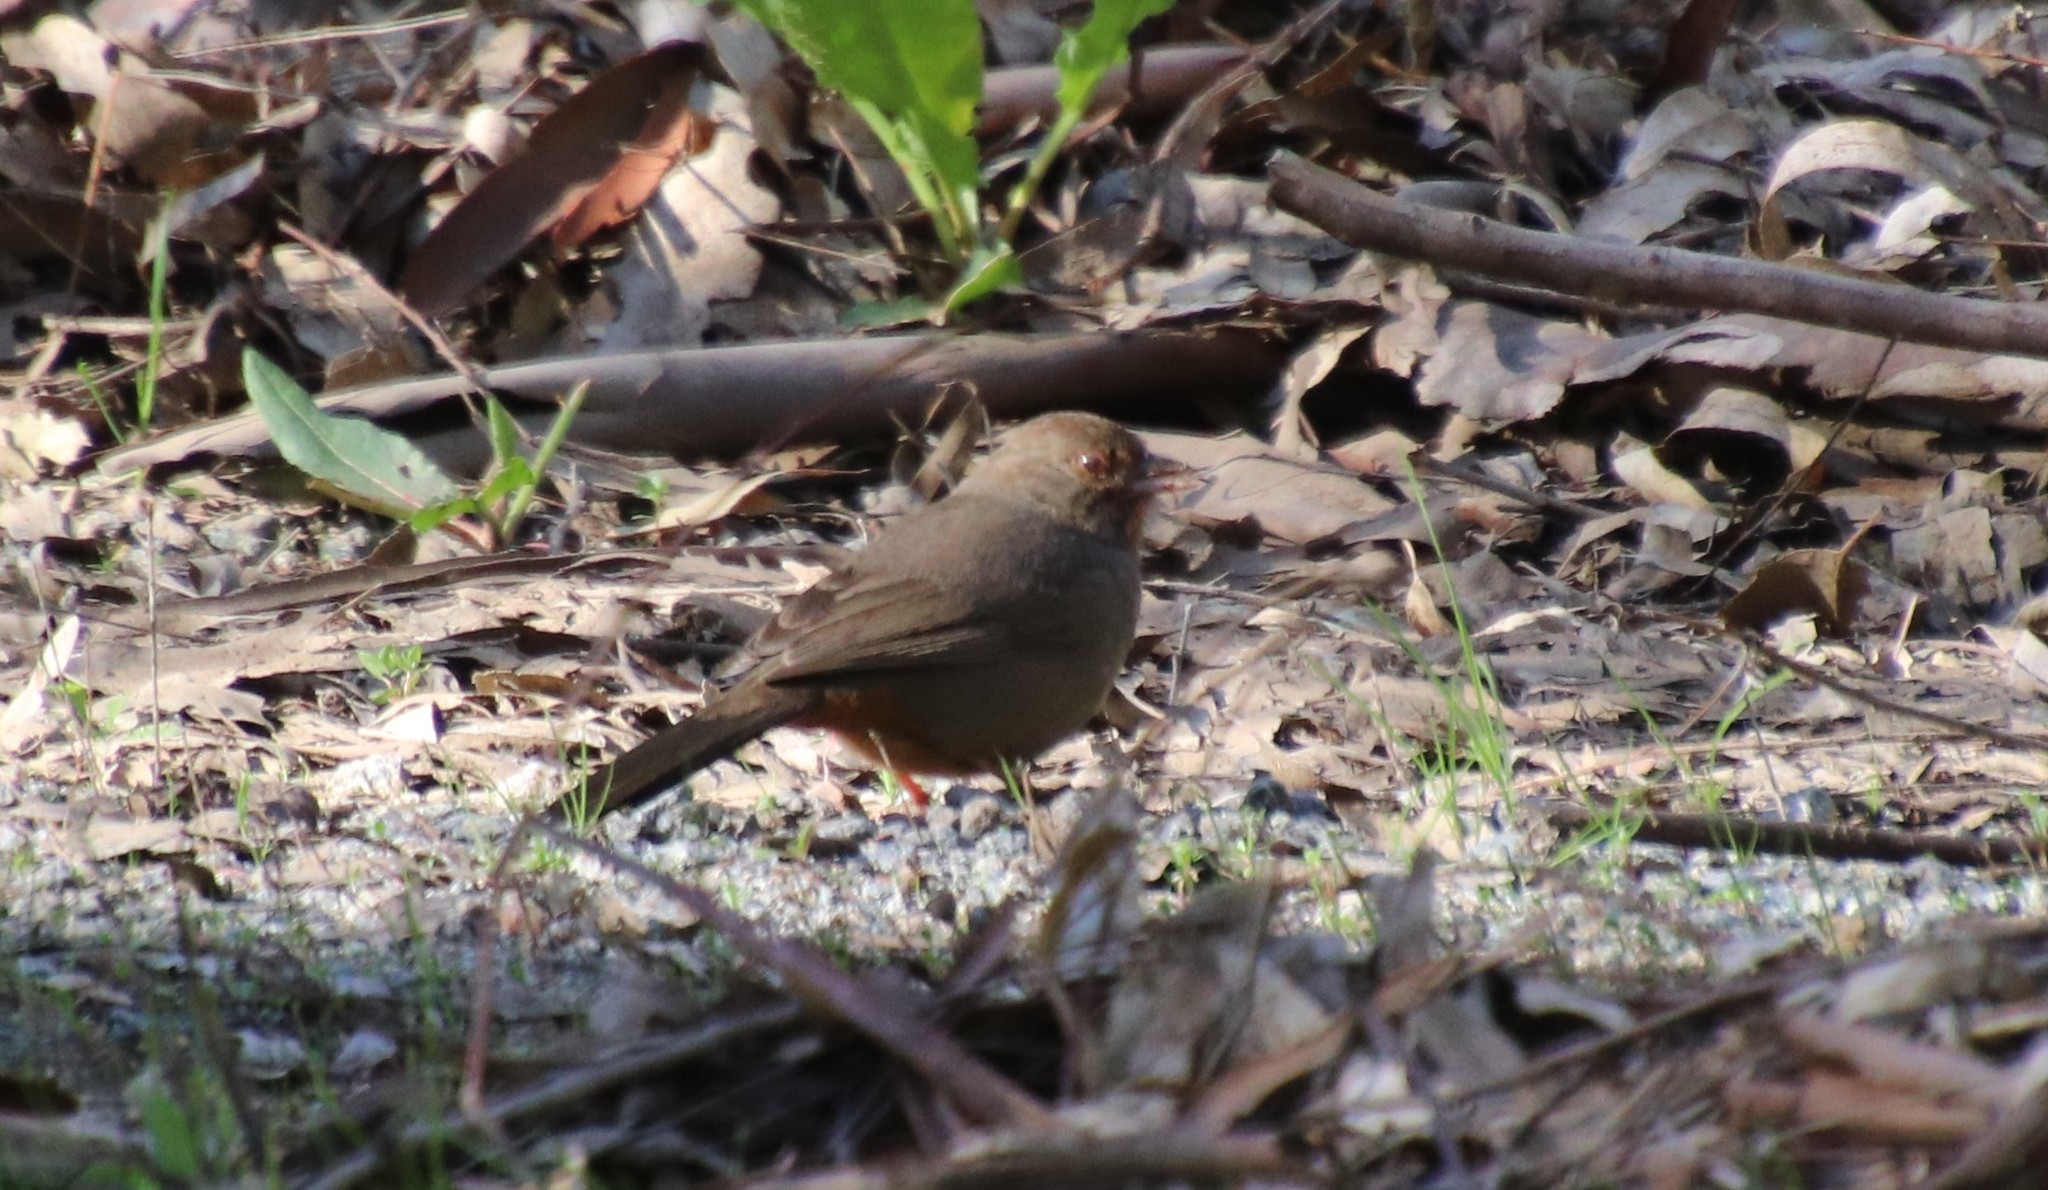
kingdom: Animalia
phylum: Chordata
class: Aves
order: Passeriformes
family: Passerellidae
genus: Melozone
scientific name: Melozone crissalis
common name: California towhee
